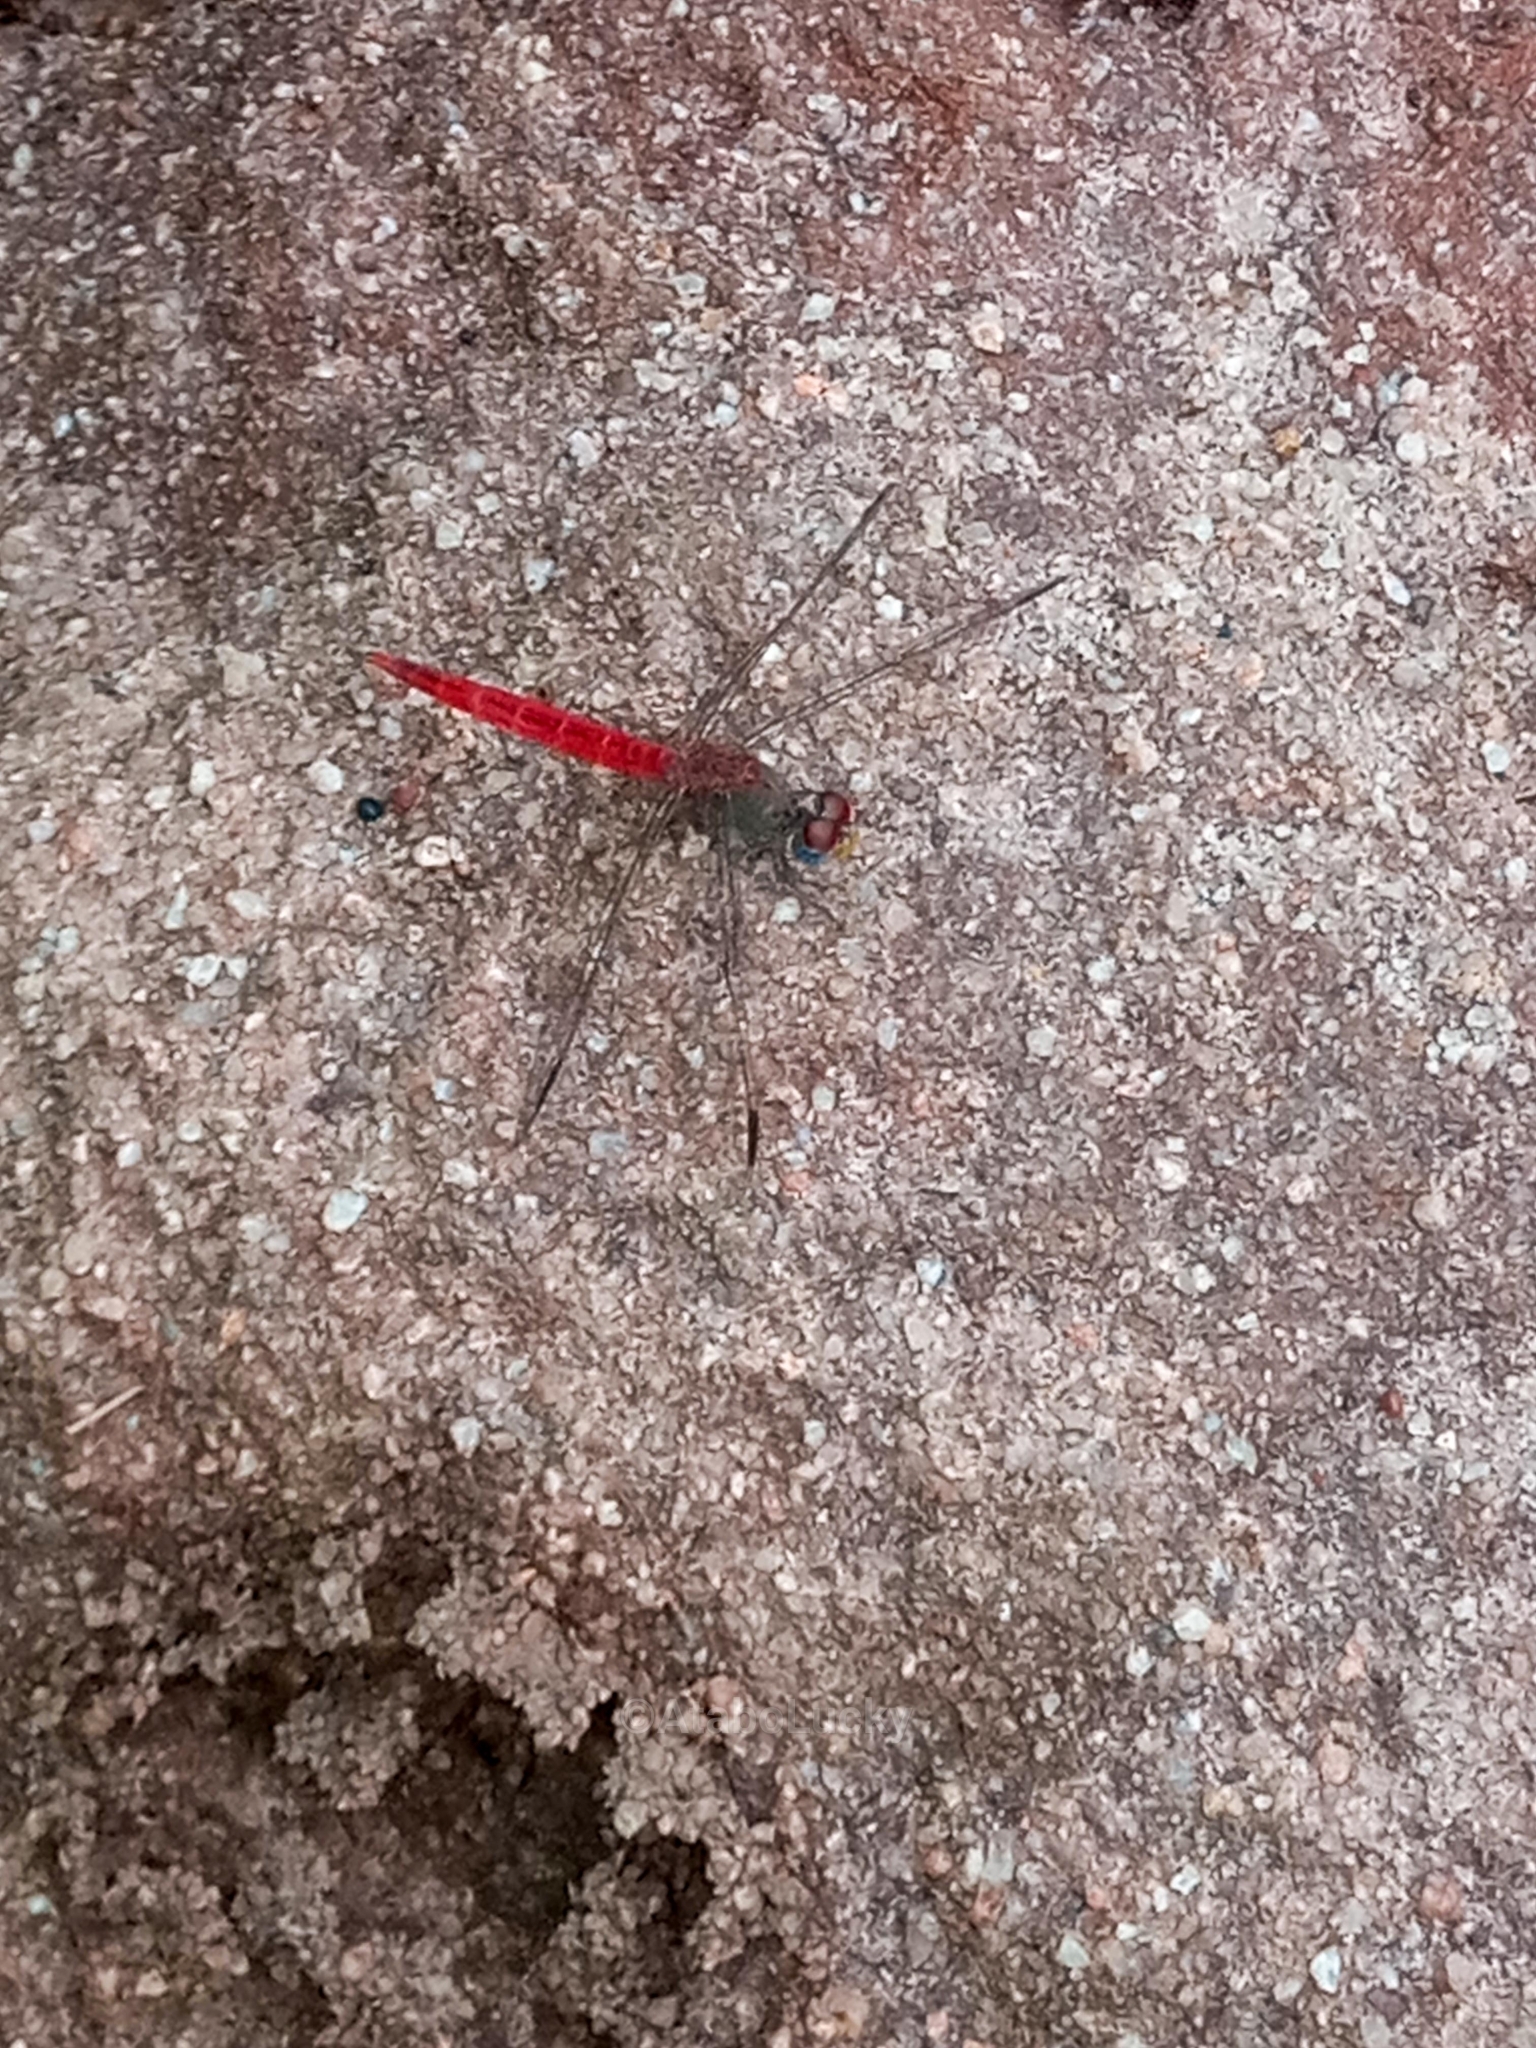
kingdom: Animalia
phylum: Arthropoda
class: Insecta
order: Odonata
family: Libellulidae
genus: Crocothemis
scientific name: Crocothemis divisa
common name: Divisa scarlet
